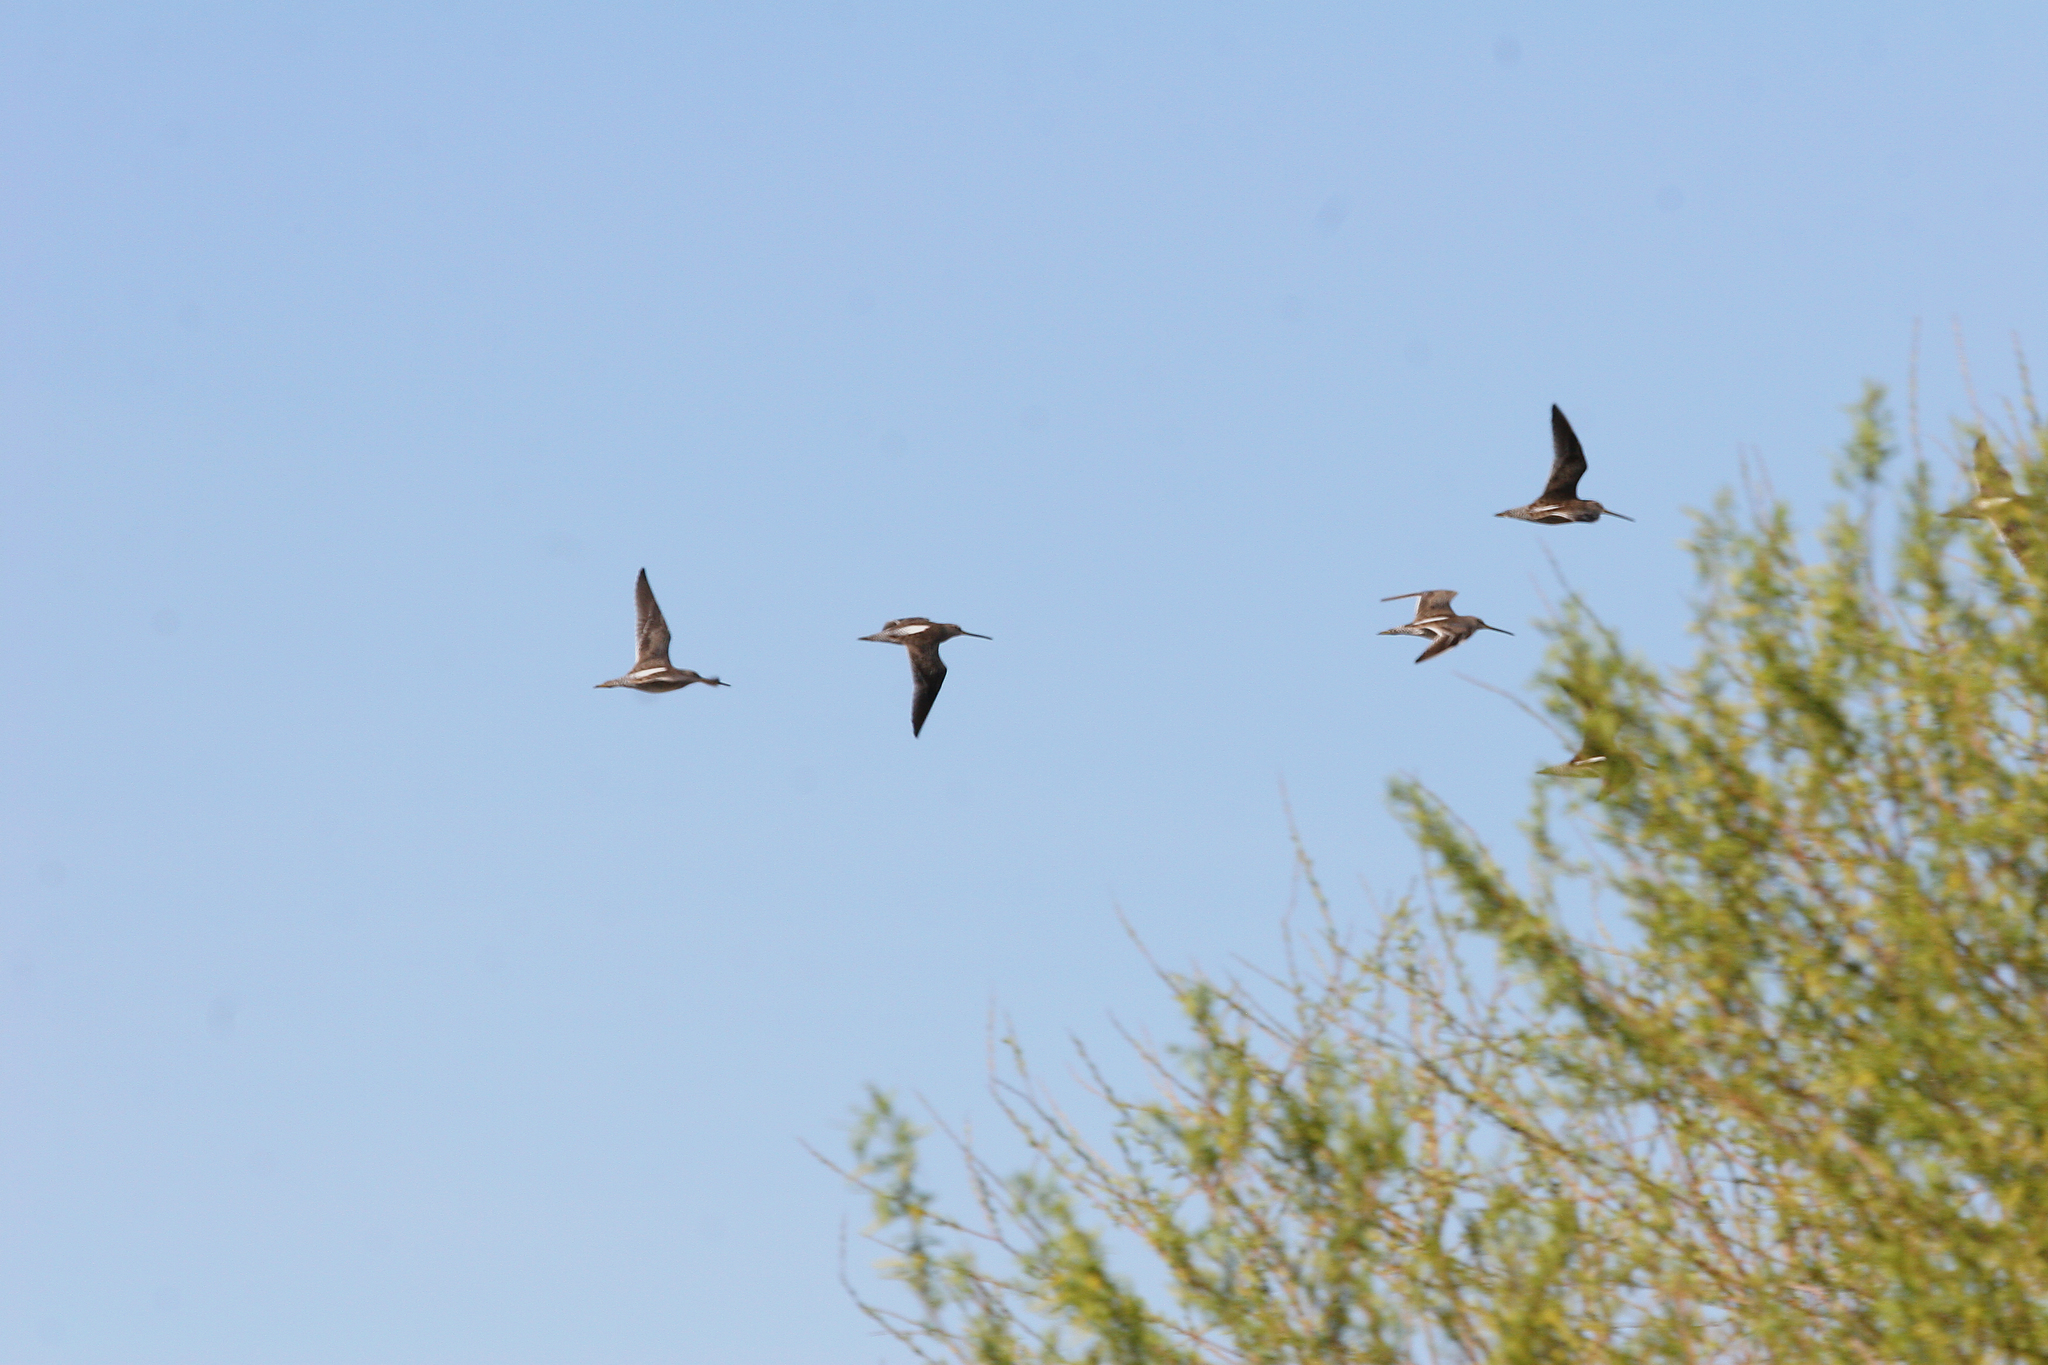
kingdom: Animalia
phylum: Chordata
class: Aves
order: Charadriiformes
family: Scolopacidae
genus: Limnodromus
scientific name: Limnodromus
